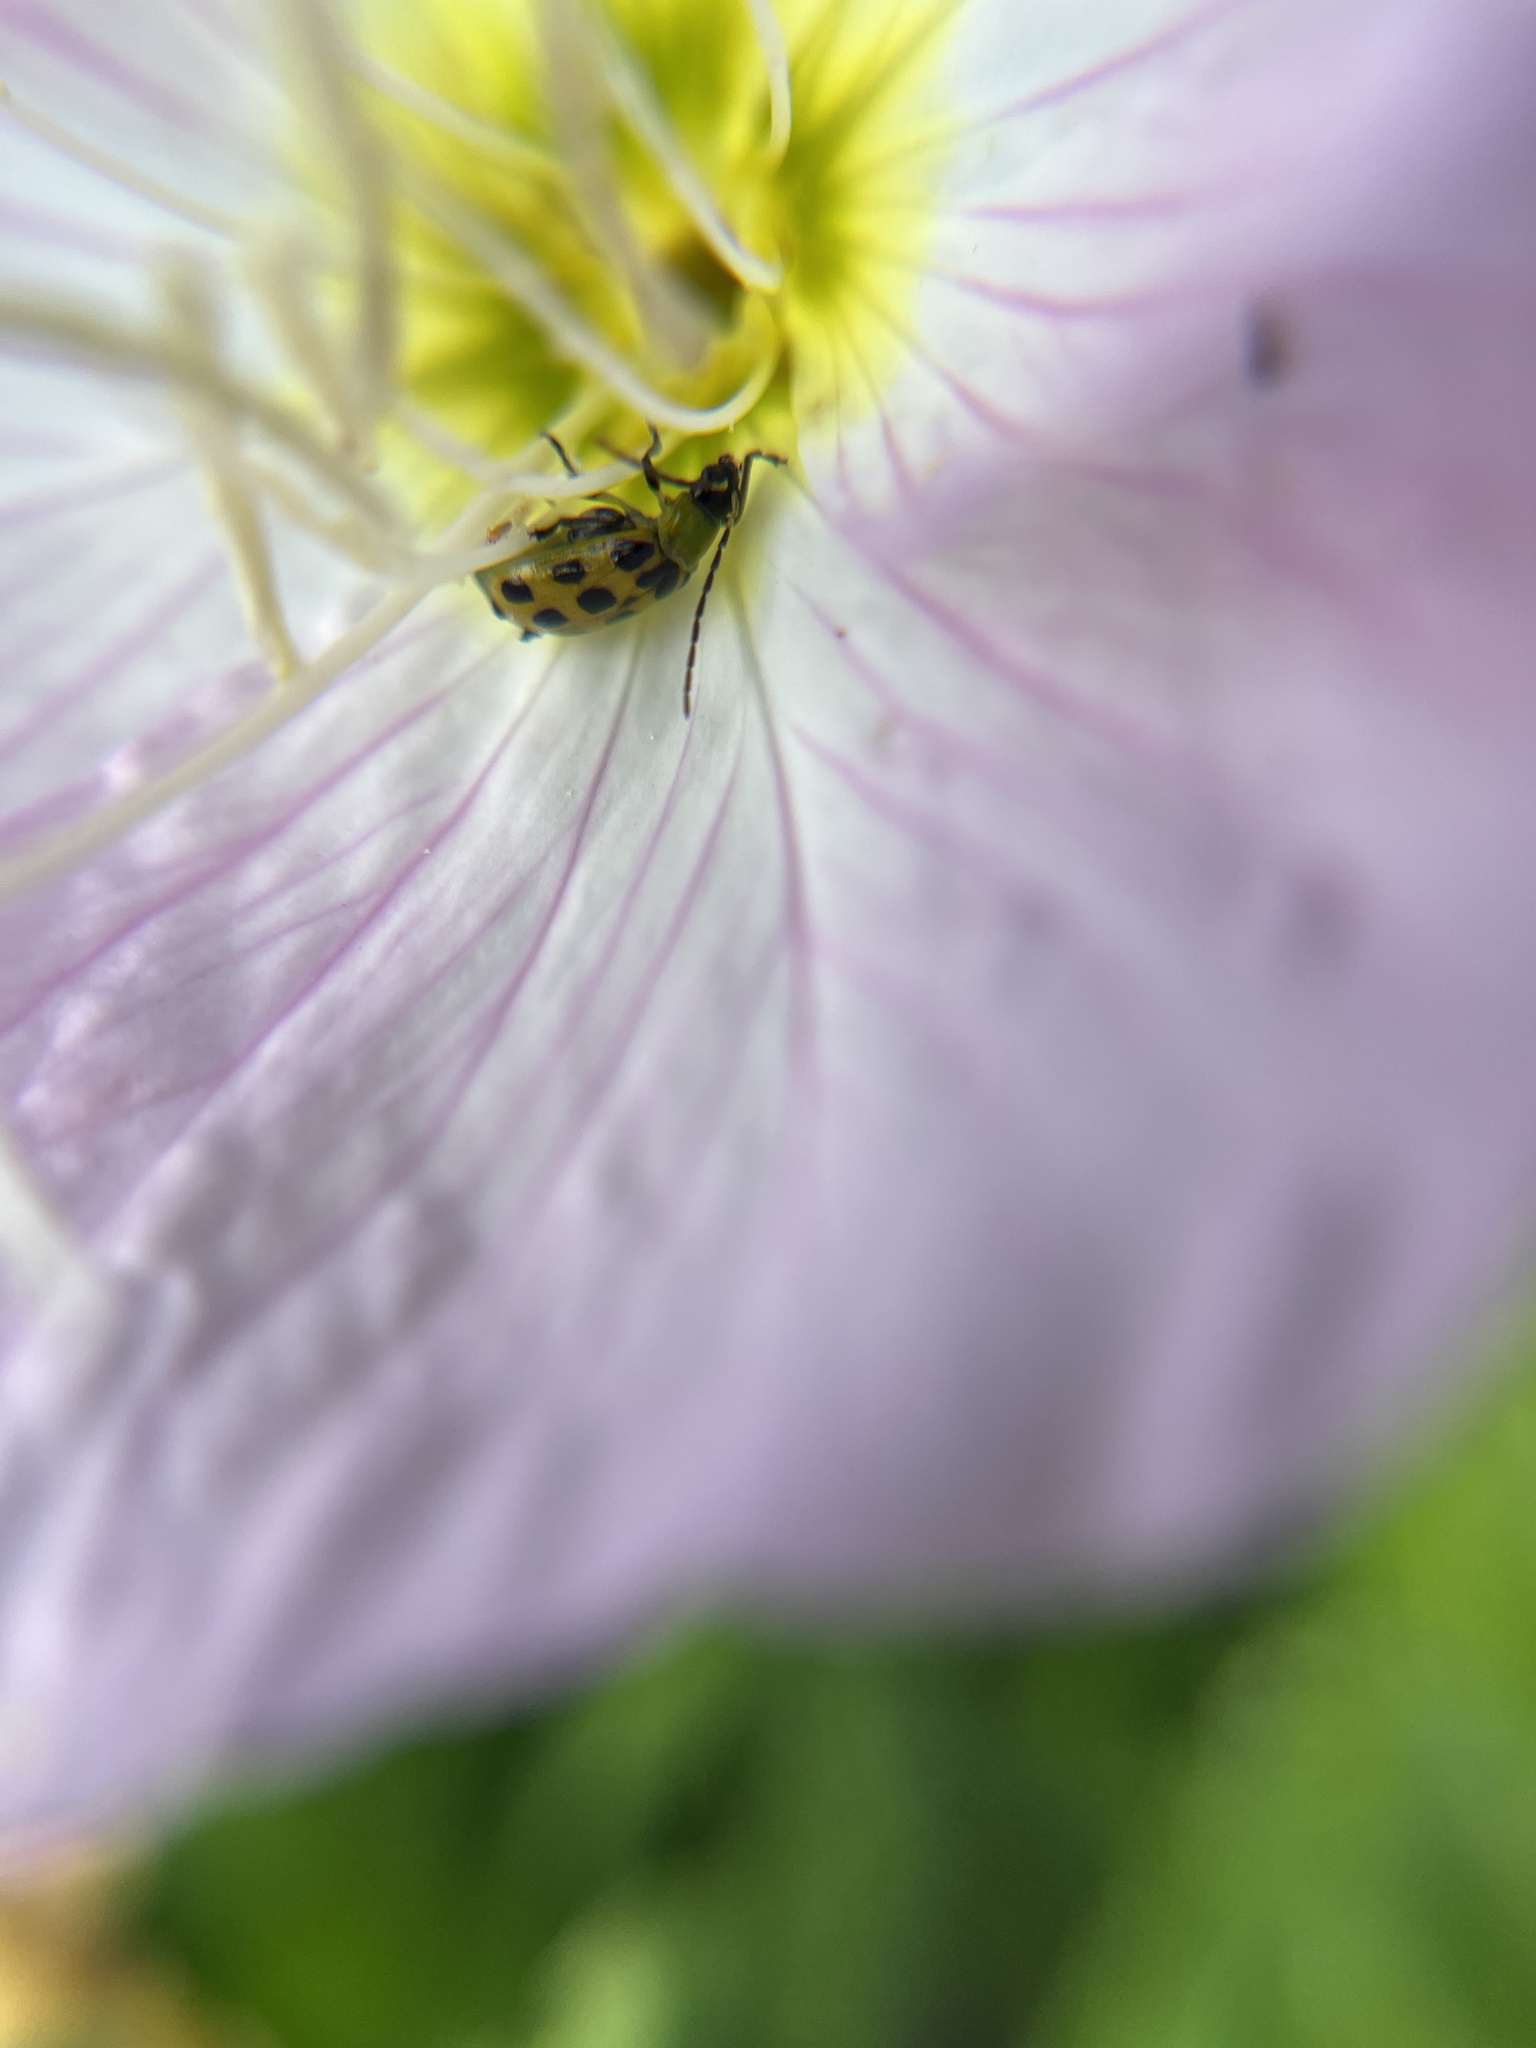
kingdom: Animalia
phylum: Arthropoda
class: Insecta
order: Coleoptera
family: Chrysomelidae
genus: Diabrotica
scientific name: Diabrotica undecimpunctata
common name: Spotted cucumber beetle
